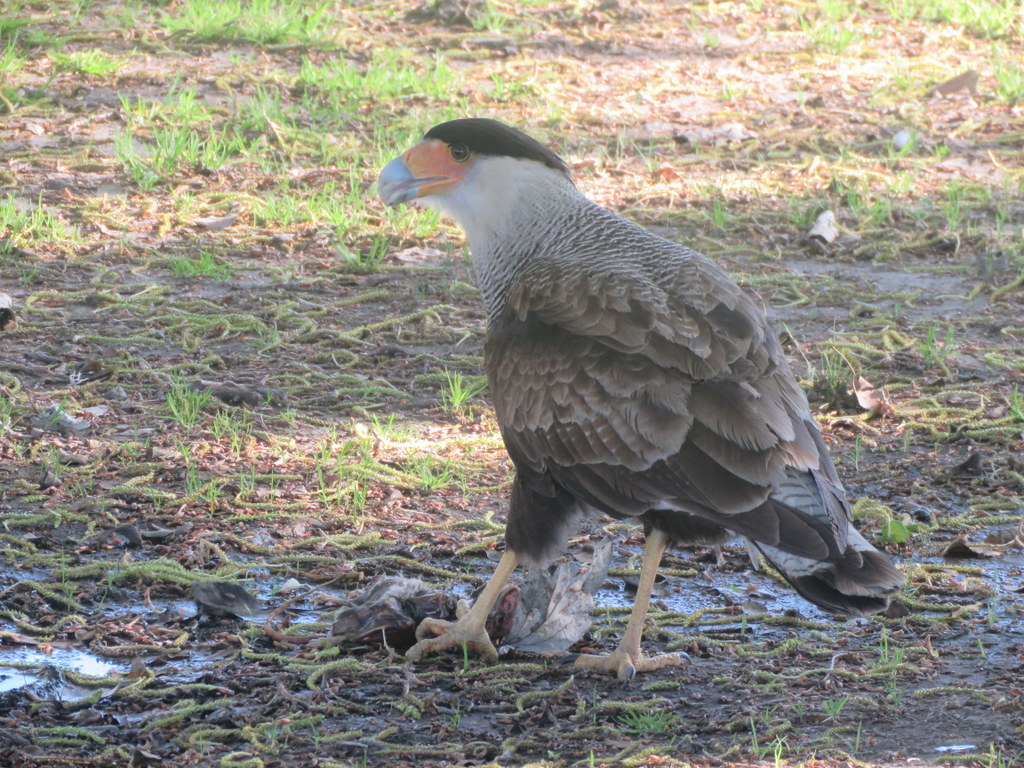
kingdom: Animalia
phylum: Chordata
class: Aves
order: Falconiformes
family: Falconidae
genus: Caracara
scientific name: Caracara plancus
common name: Southern caracara
